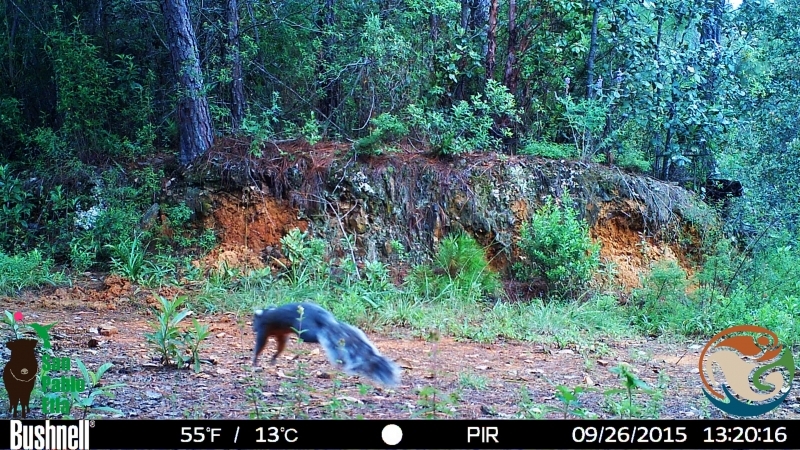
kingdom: Animalia
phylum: Chordata
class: Mammalia
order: Rodentia
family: Sciuridae
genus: Sciurus
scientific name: Sciurus aureogaster
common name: Red-bellied squirrel
